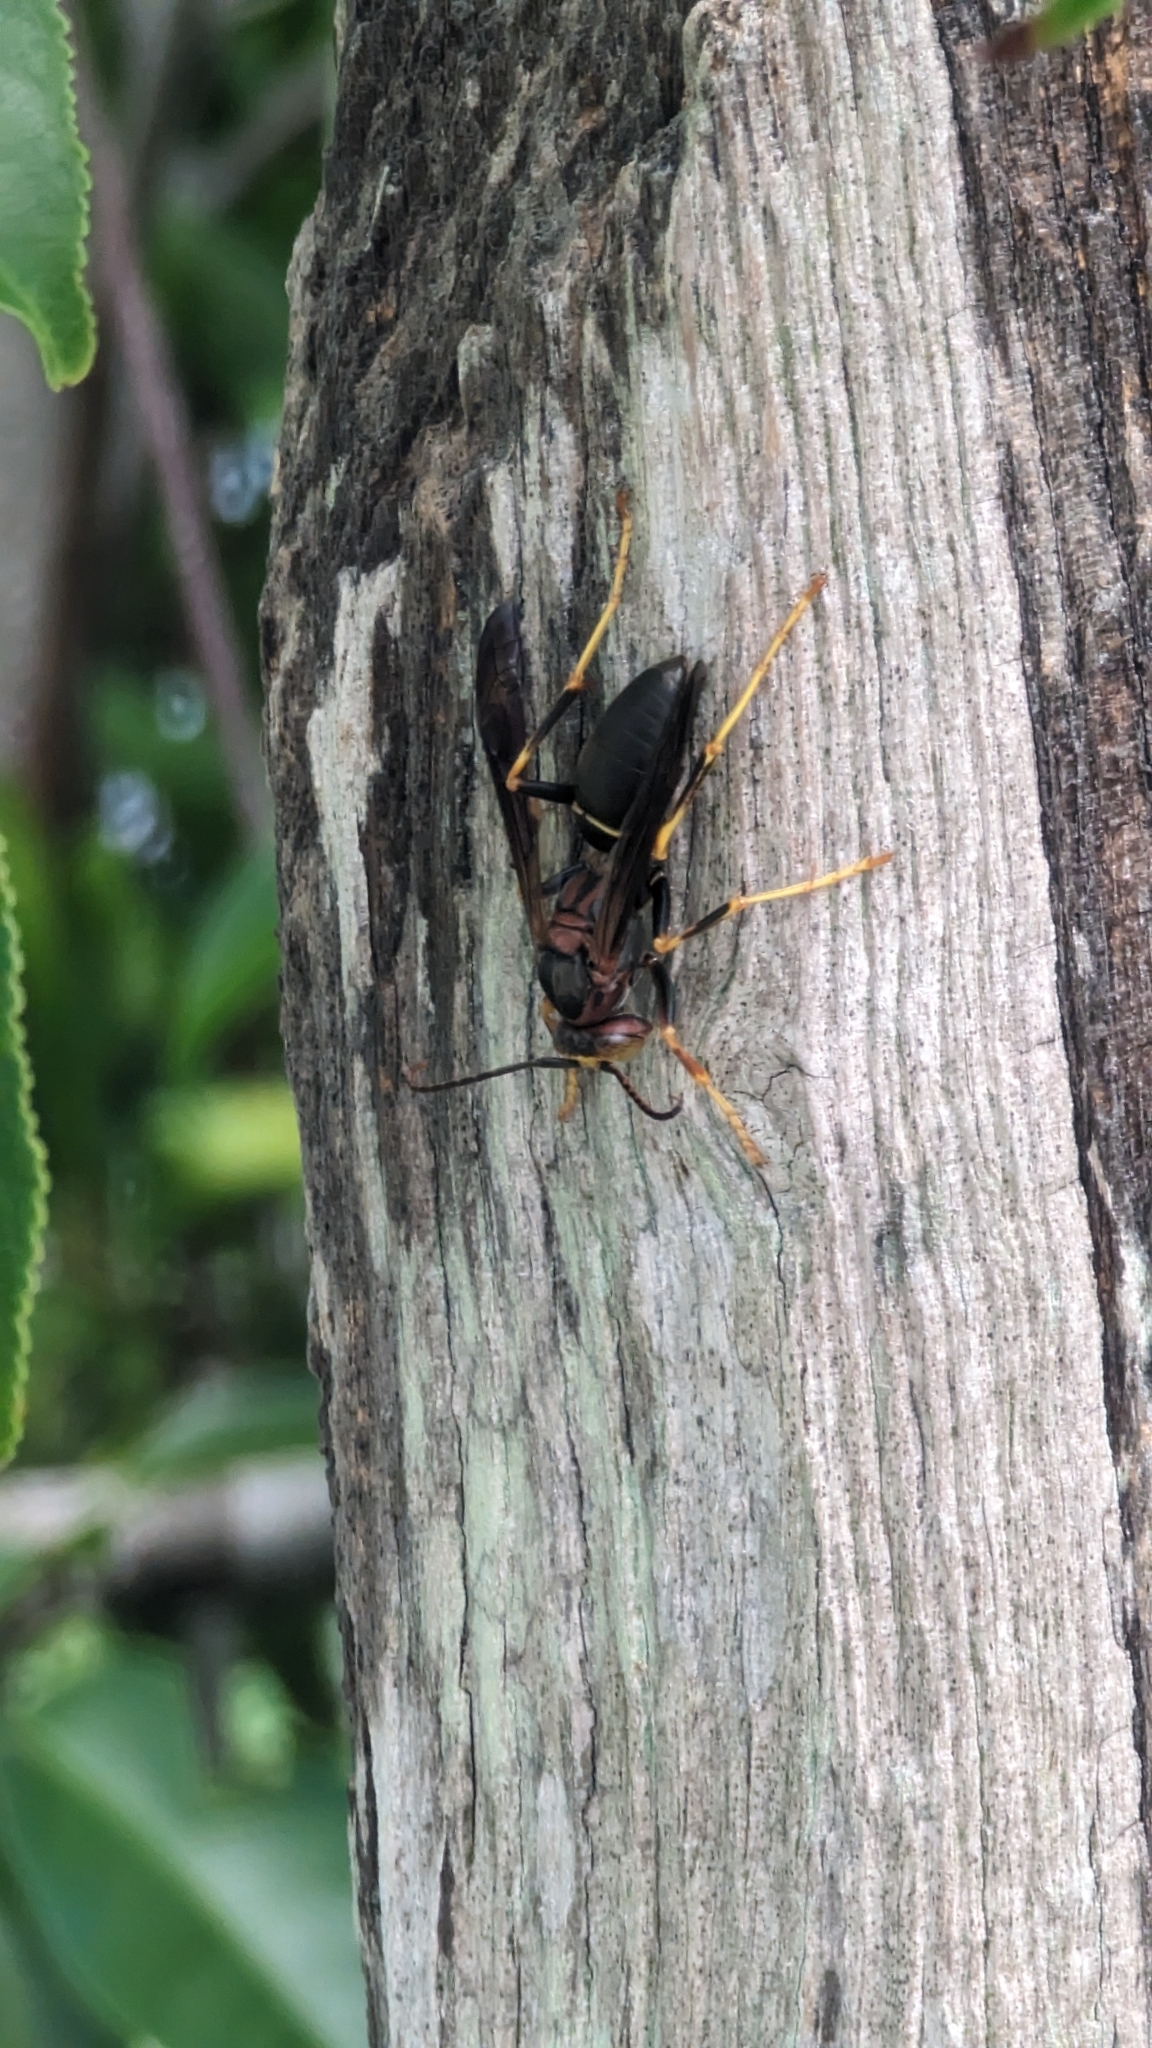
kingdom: Animalia
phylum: Arthropoda
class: Insecta
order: Hymenoptera
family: Eumenidae
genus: Polistes
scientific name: Polistes metricus
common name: Metric paper wasp
